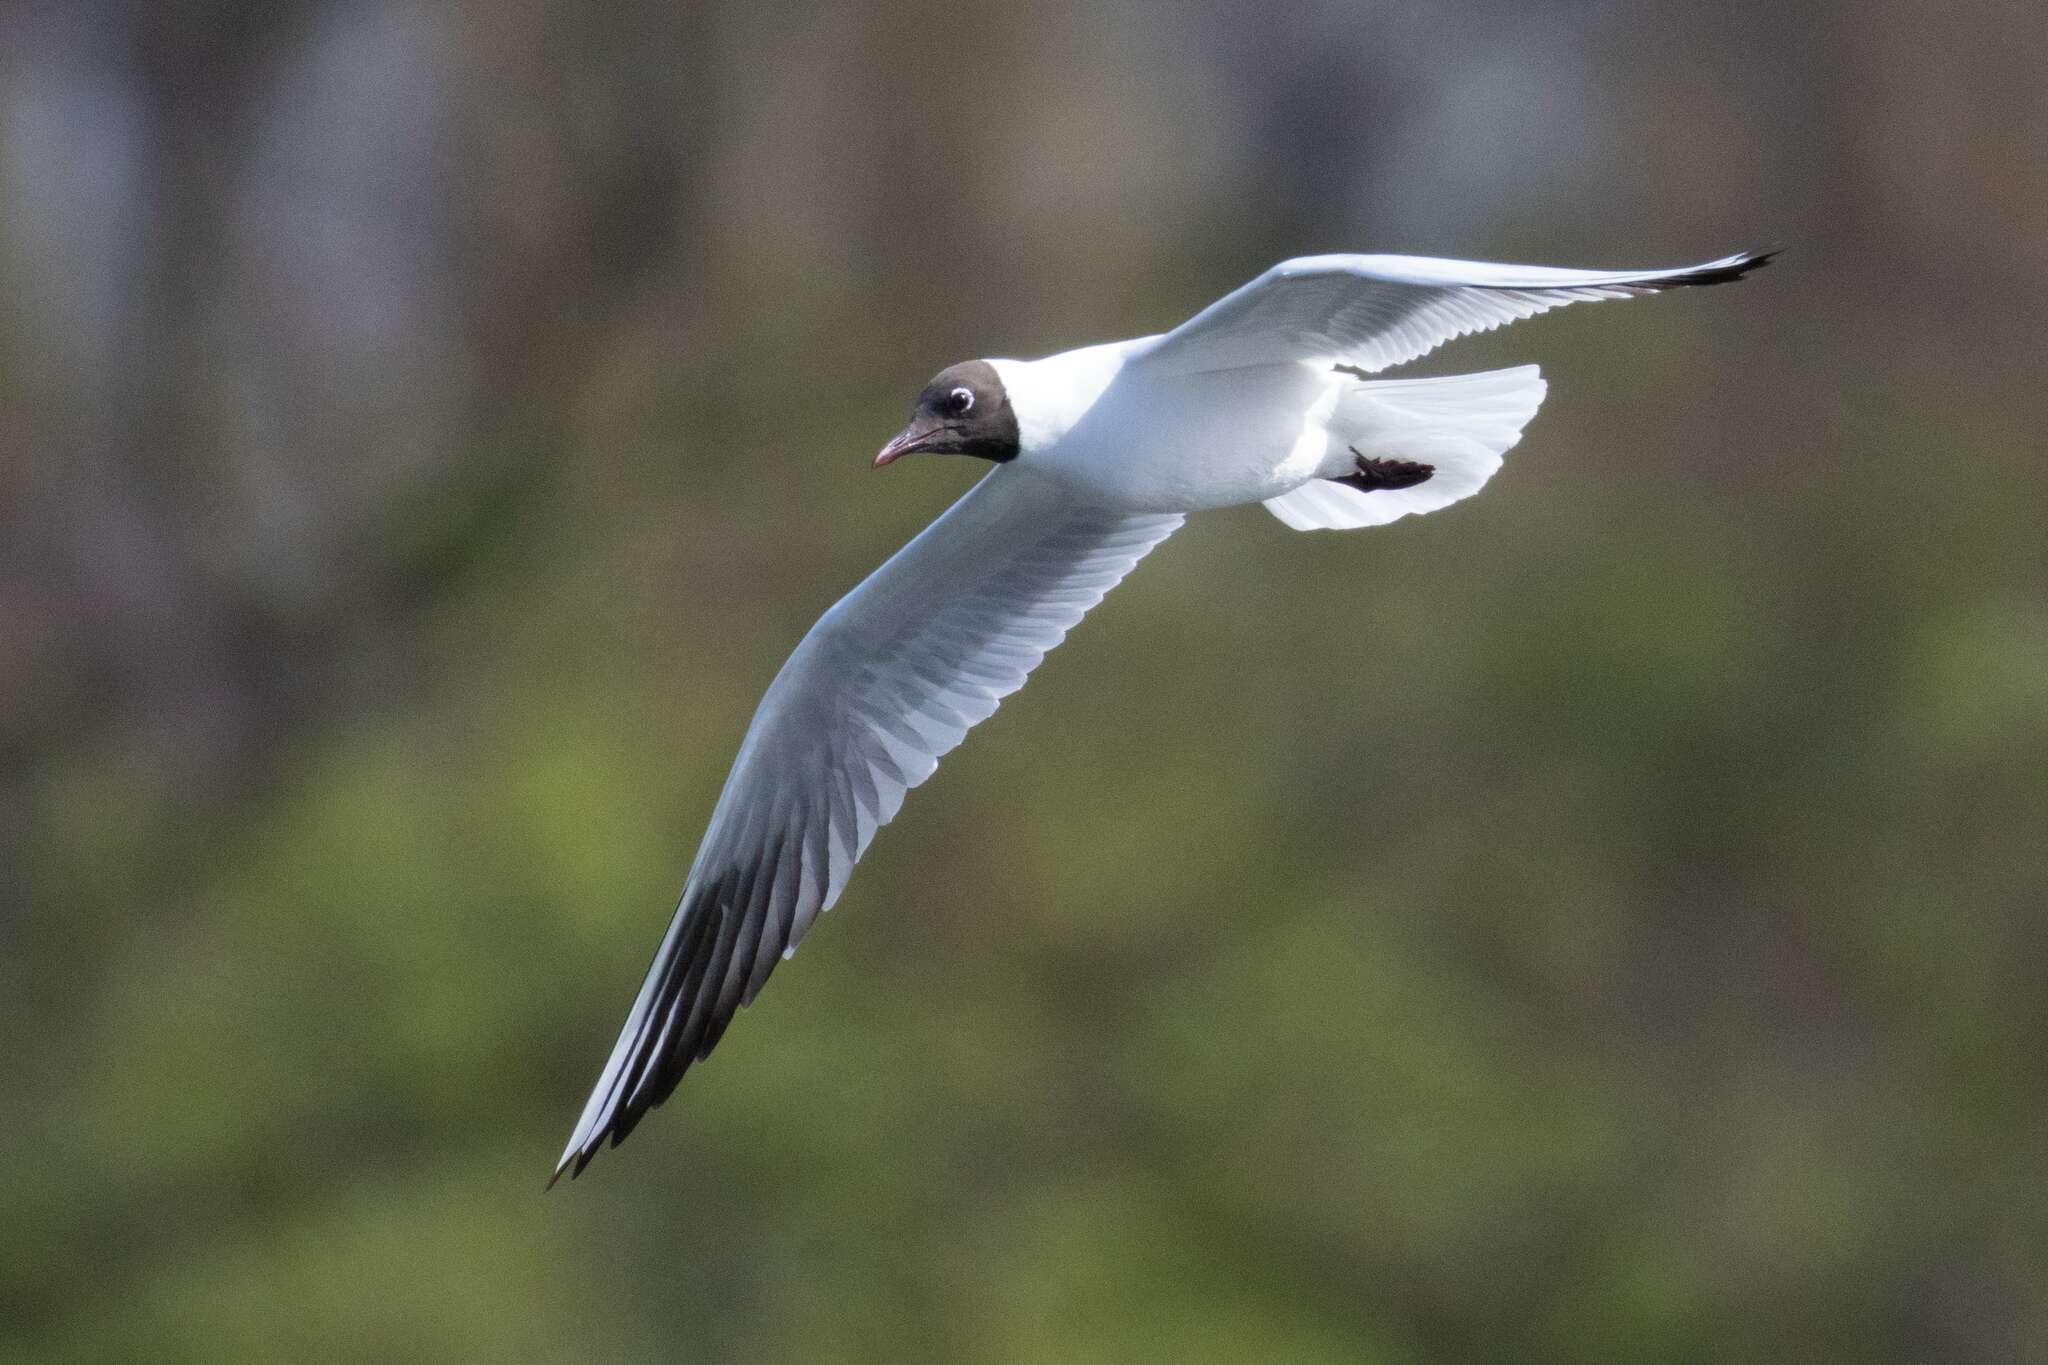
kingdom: Animalia
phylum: Chordata
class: Aves
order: Charadriiformes
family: Laridae
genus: Chroicocephalus
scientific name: Chroicocephalus ridibundus
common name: Black-headed gull
